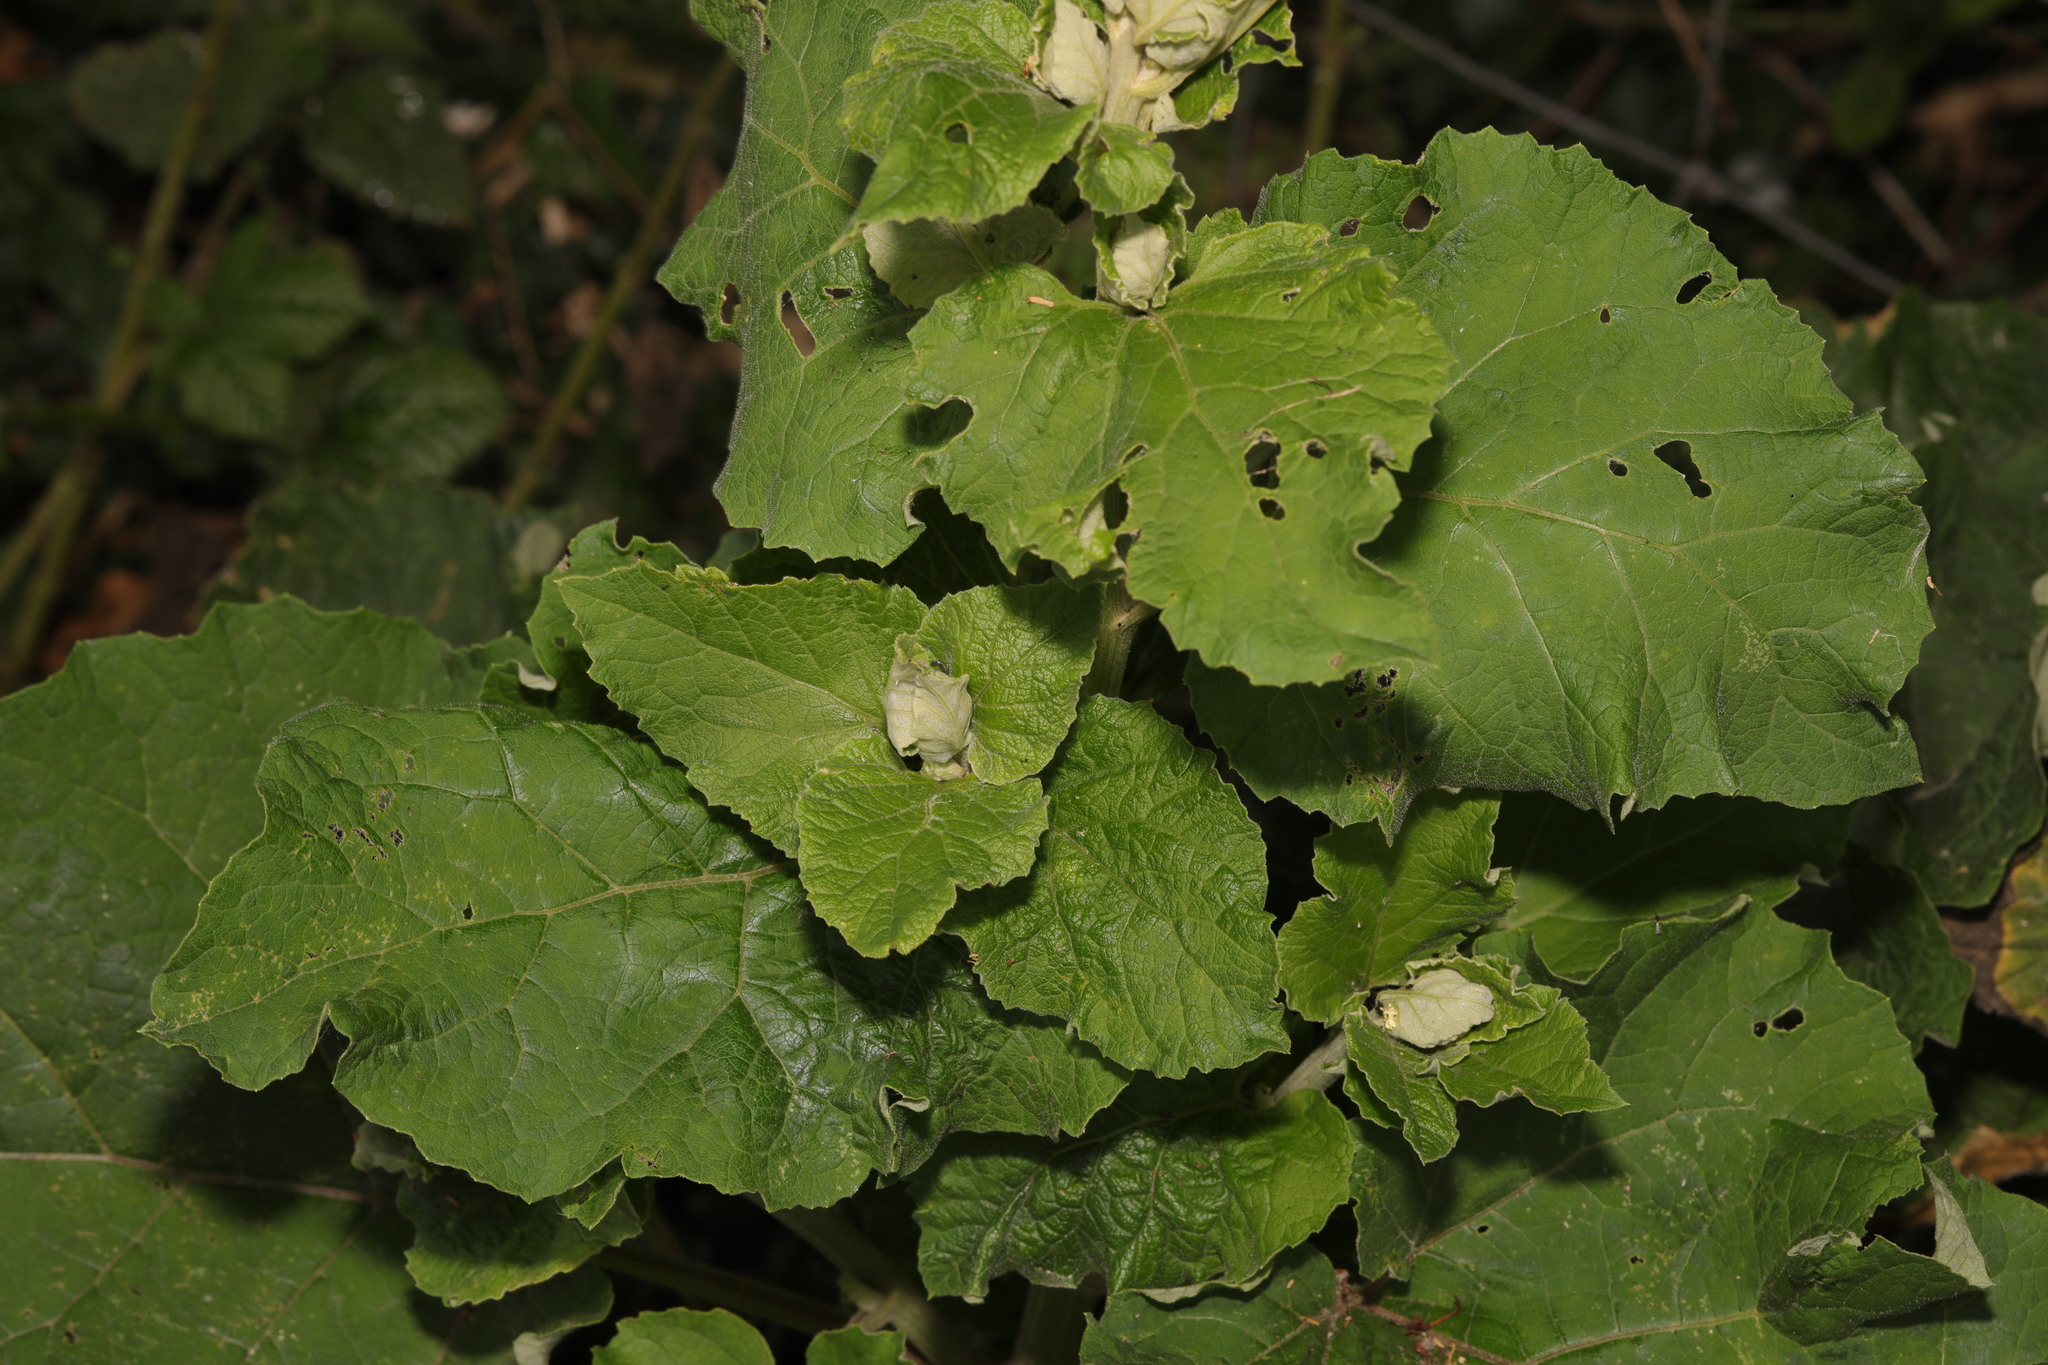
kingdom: Plantae
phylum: Tracheophyta
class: Magnoliopsida
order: Asterales
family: Asteraceae
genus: Arctium
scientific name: Arctium minus
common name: Lesser burdock
